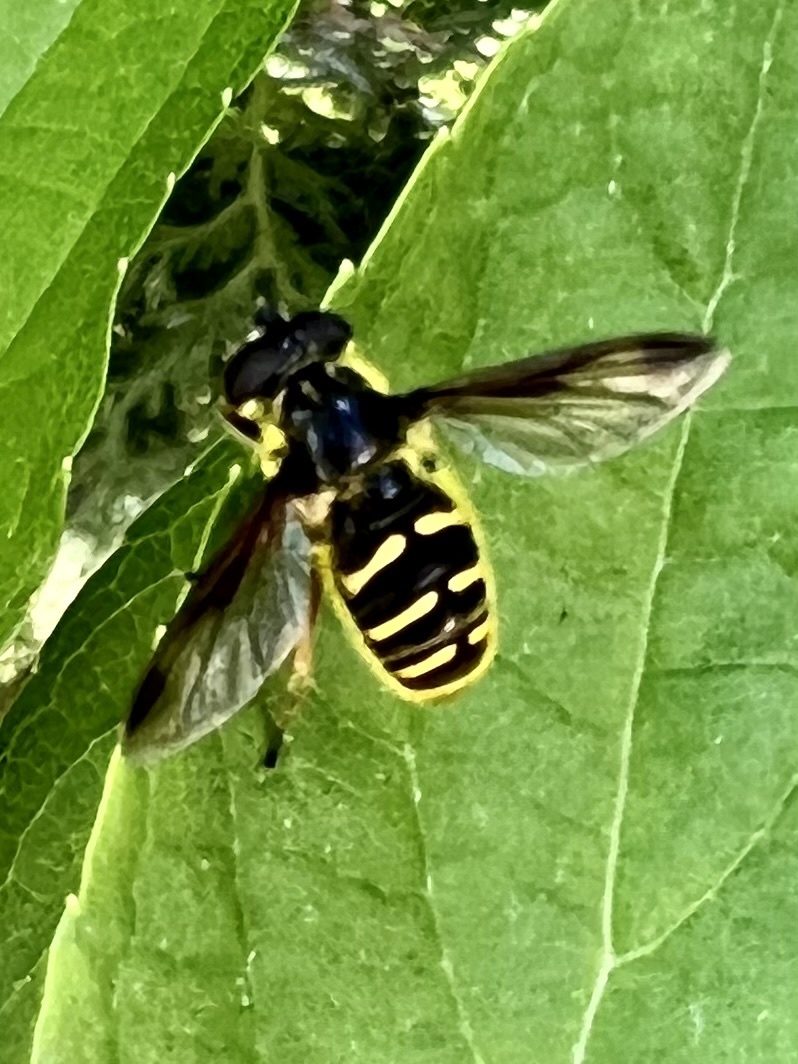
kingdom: Animalia
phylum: Arthropoda
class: Insecta
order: Diptera
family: Syrphidae
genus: Sericomyia
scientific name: Sericomyia chrysotoxoides
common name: Oblique-banded pond fly
